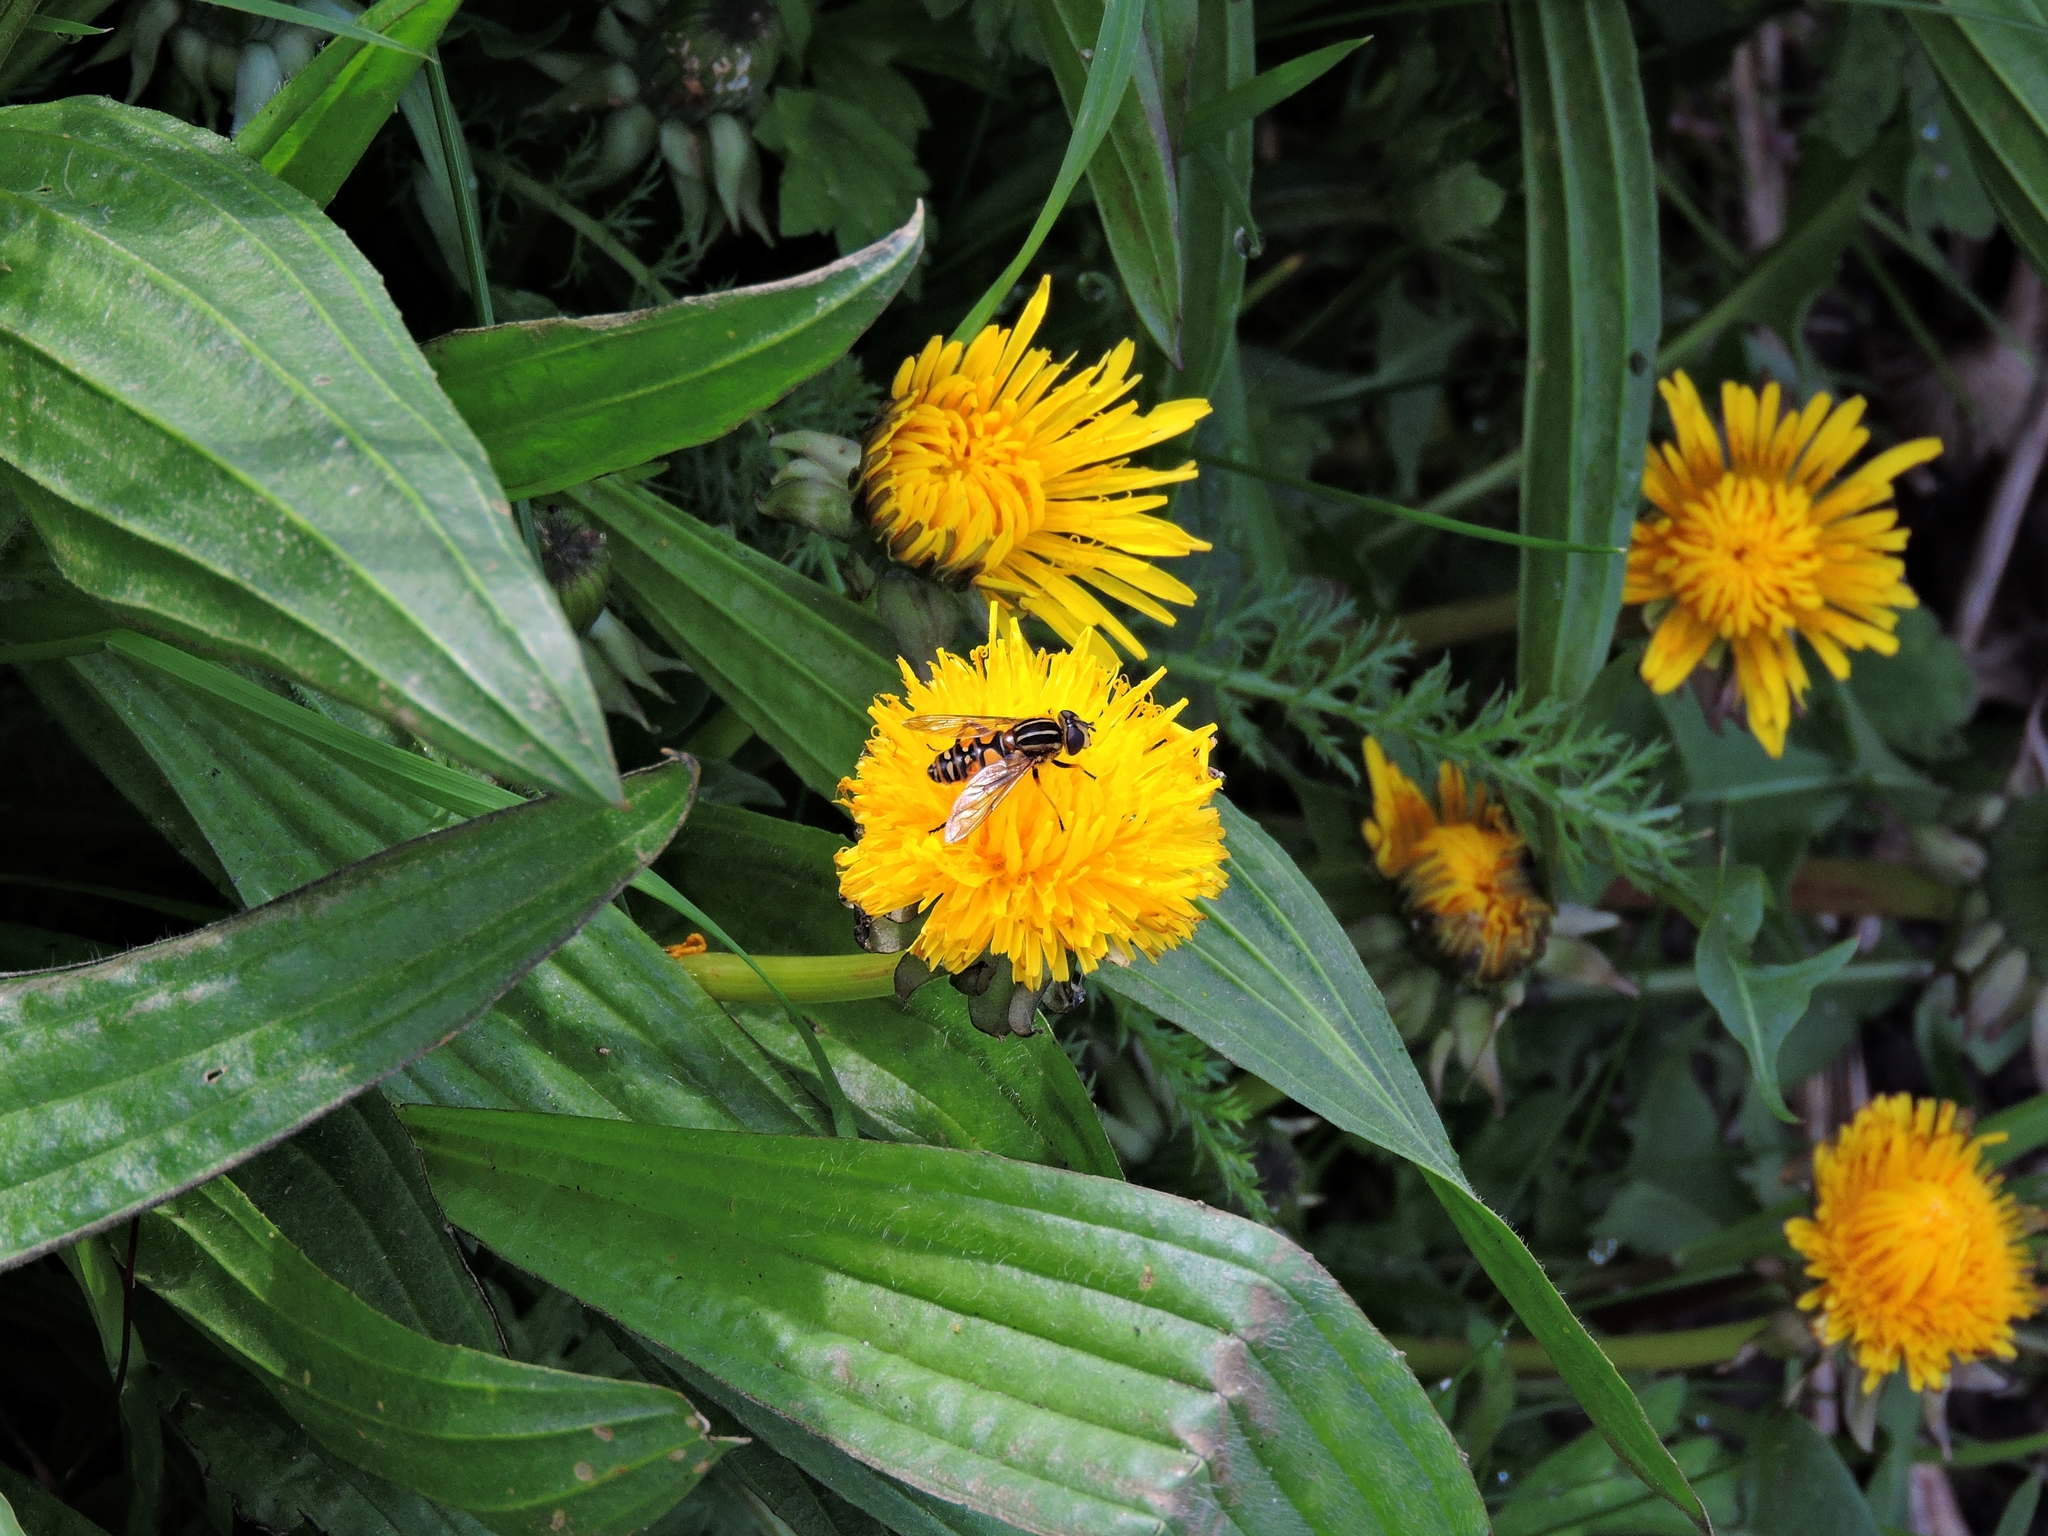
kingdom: Animalia
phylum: Arthropoda
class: Insecta
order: Diptera
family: Syrphidae
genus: Helophilus
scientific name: Helophilus pendulus
